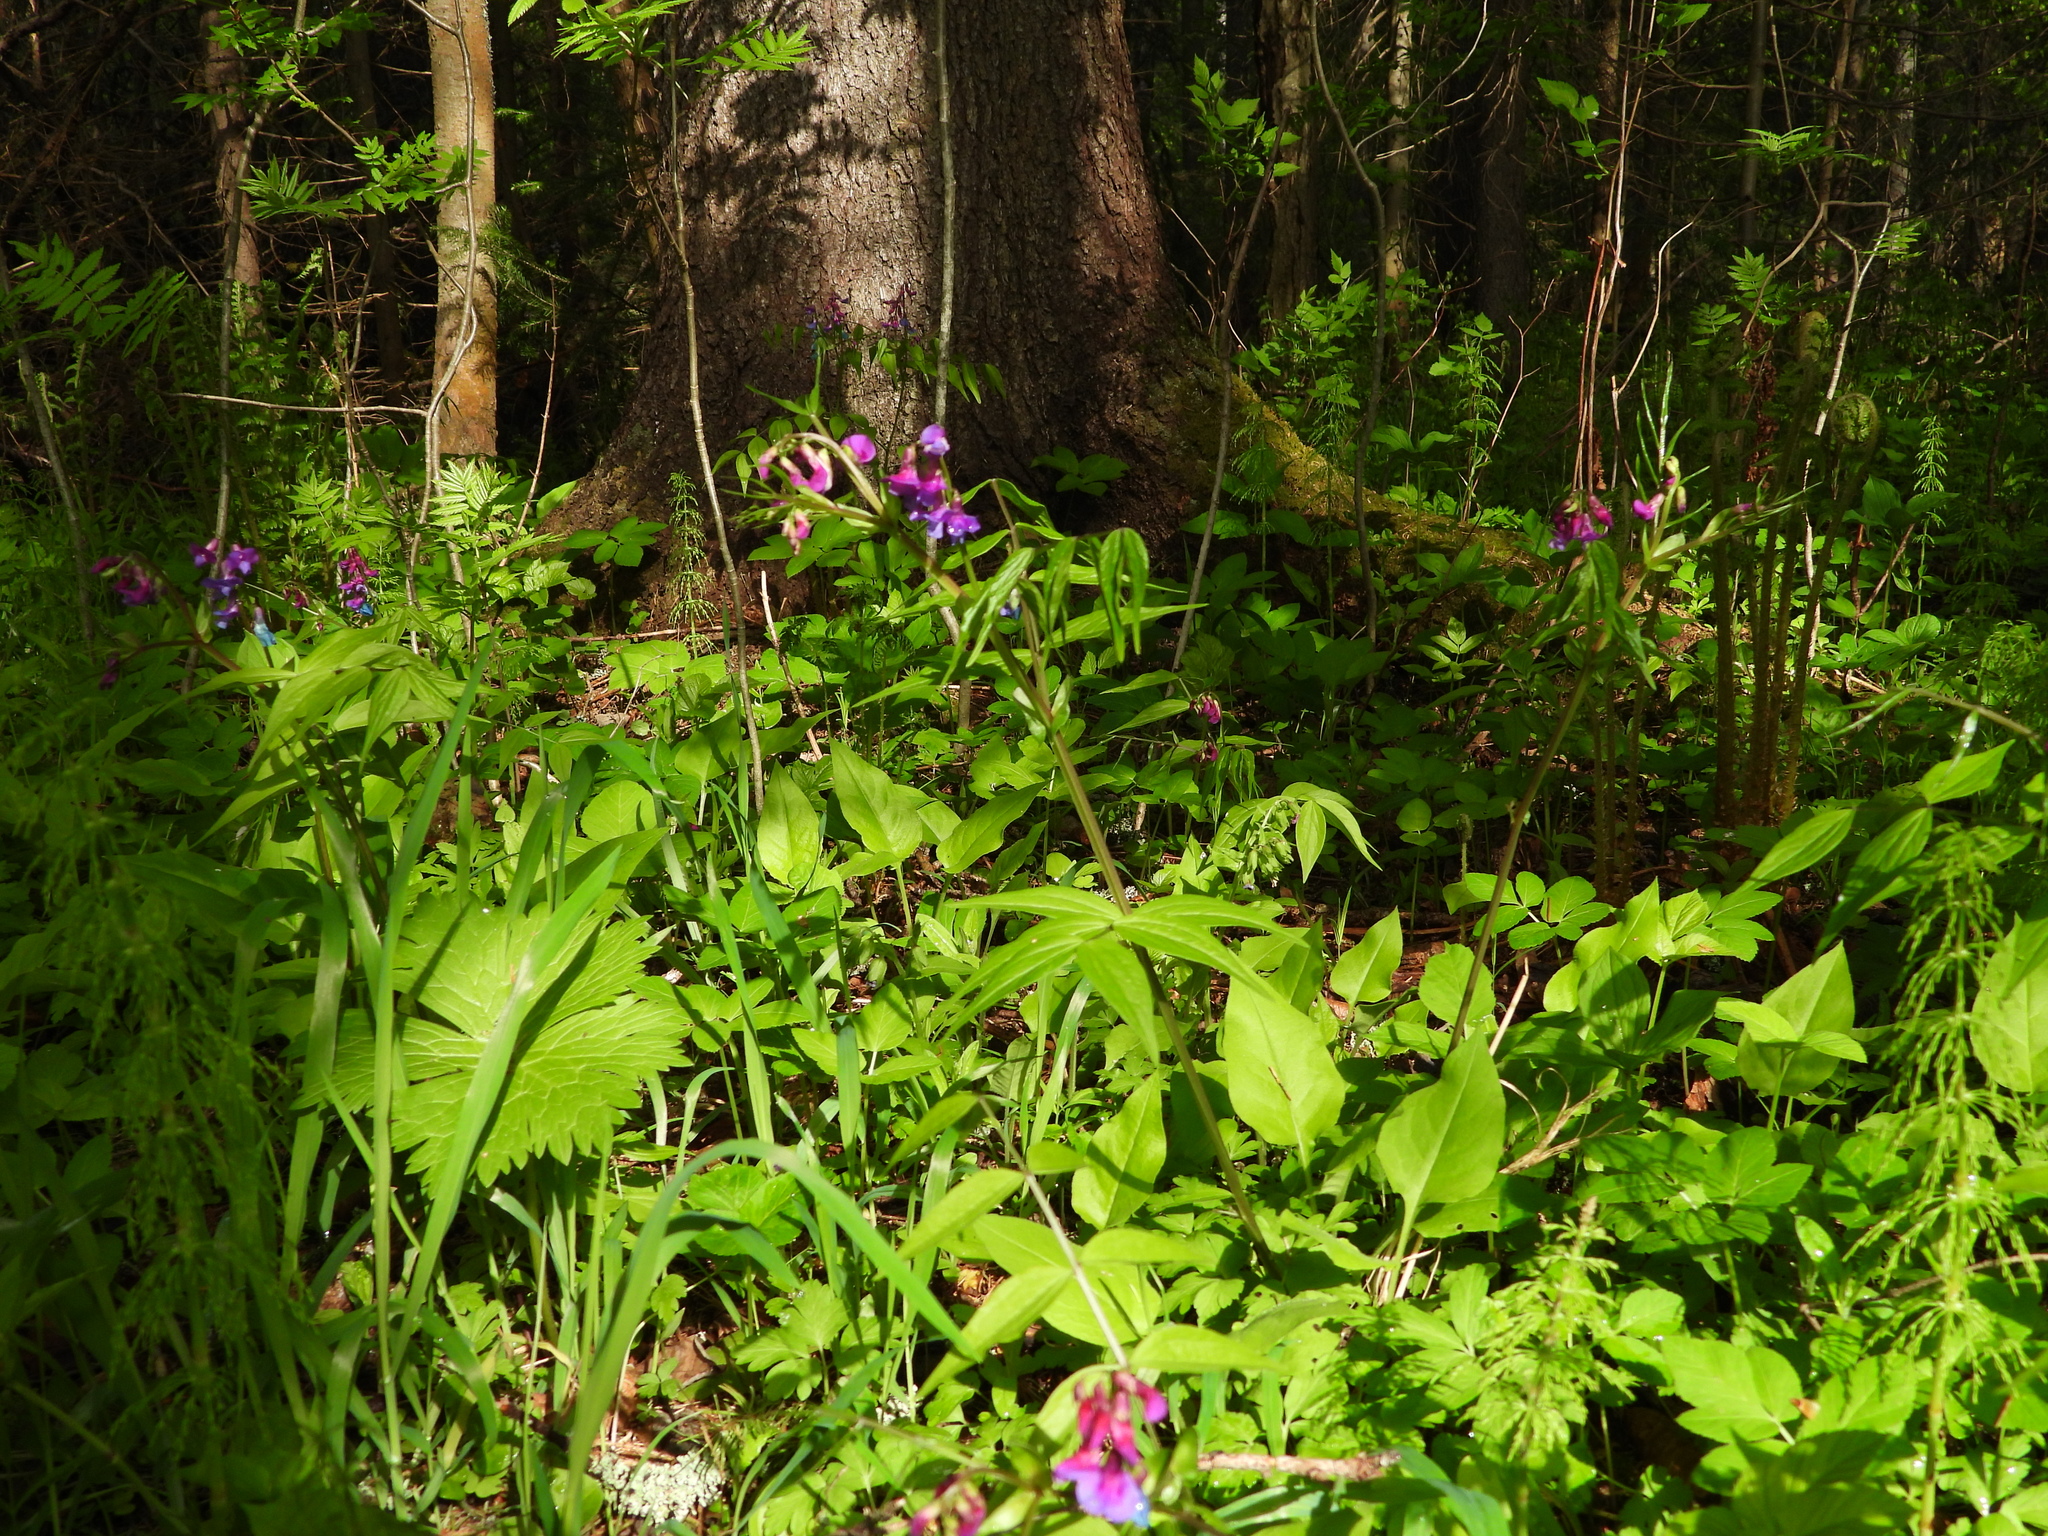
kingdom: Plantae
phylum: Tracheophyta
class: Magnoliopsida
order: Fabales
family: Fabaceae
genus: Lathyrus
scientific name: Lathyrus vernus
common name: Spring pea
